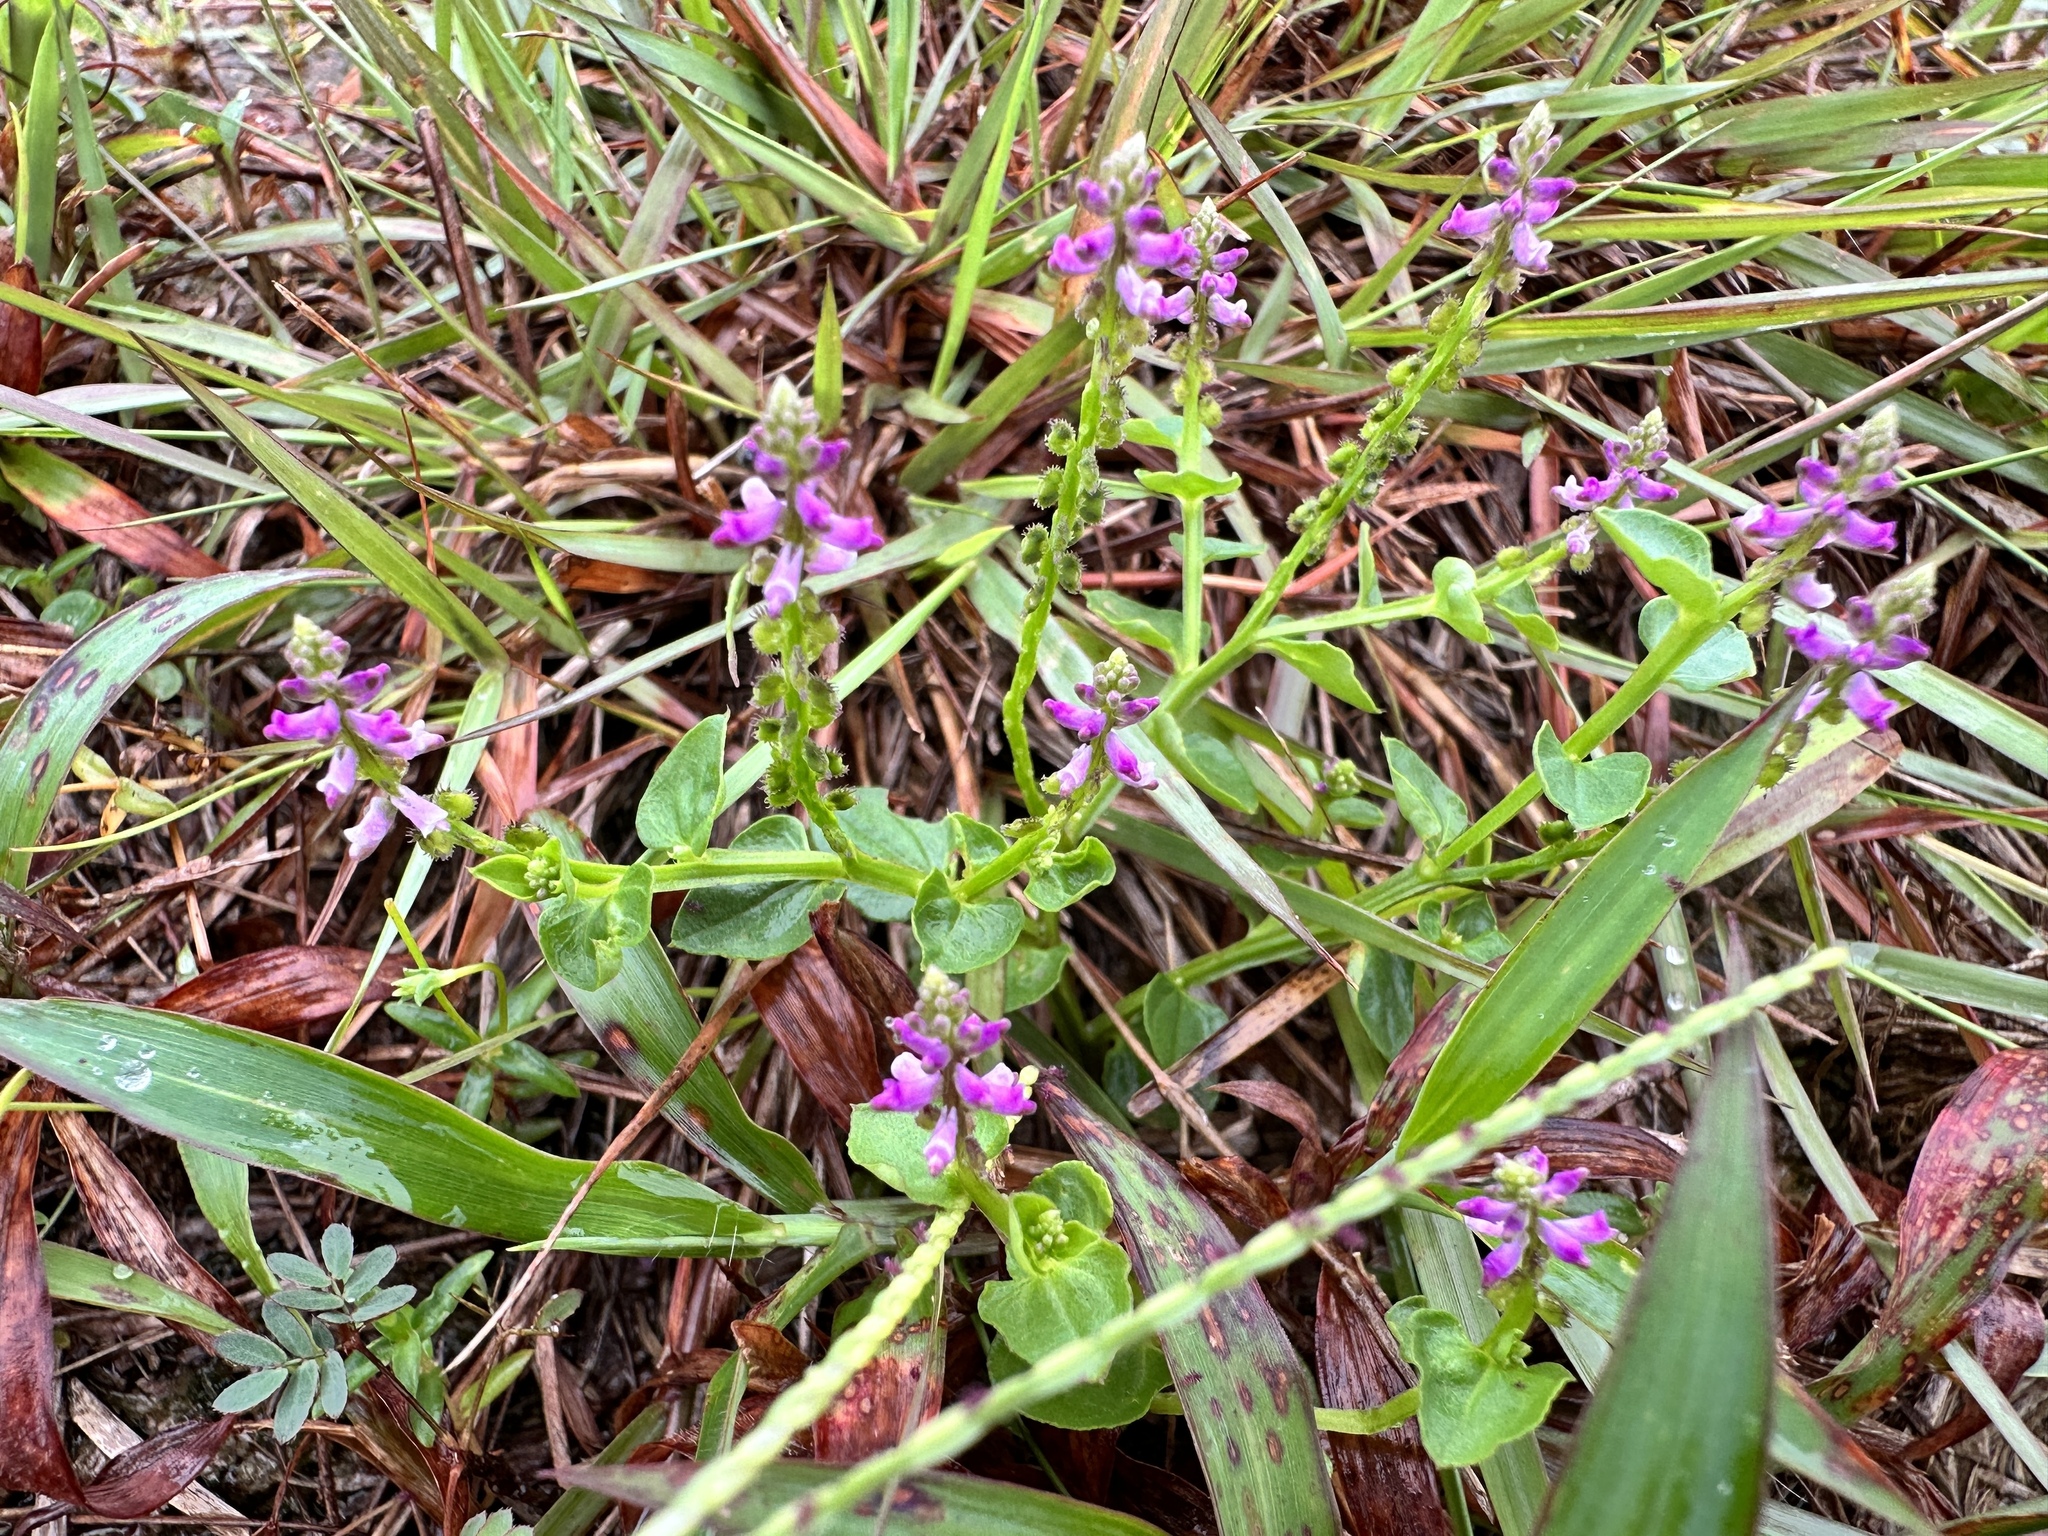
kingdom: Plantae
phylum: Tracheophyta
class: Magnoliopsida
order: Fabales
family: Polygalaceae
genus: Salomonia
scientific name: Salomonia cantoniensis
